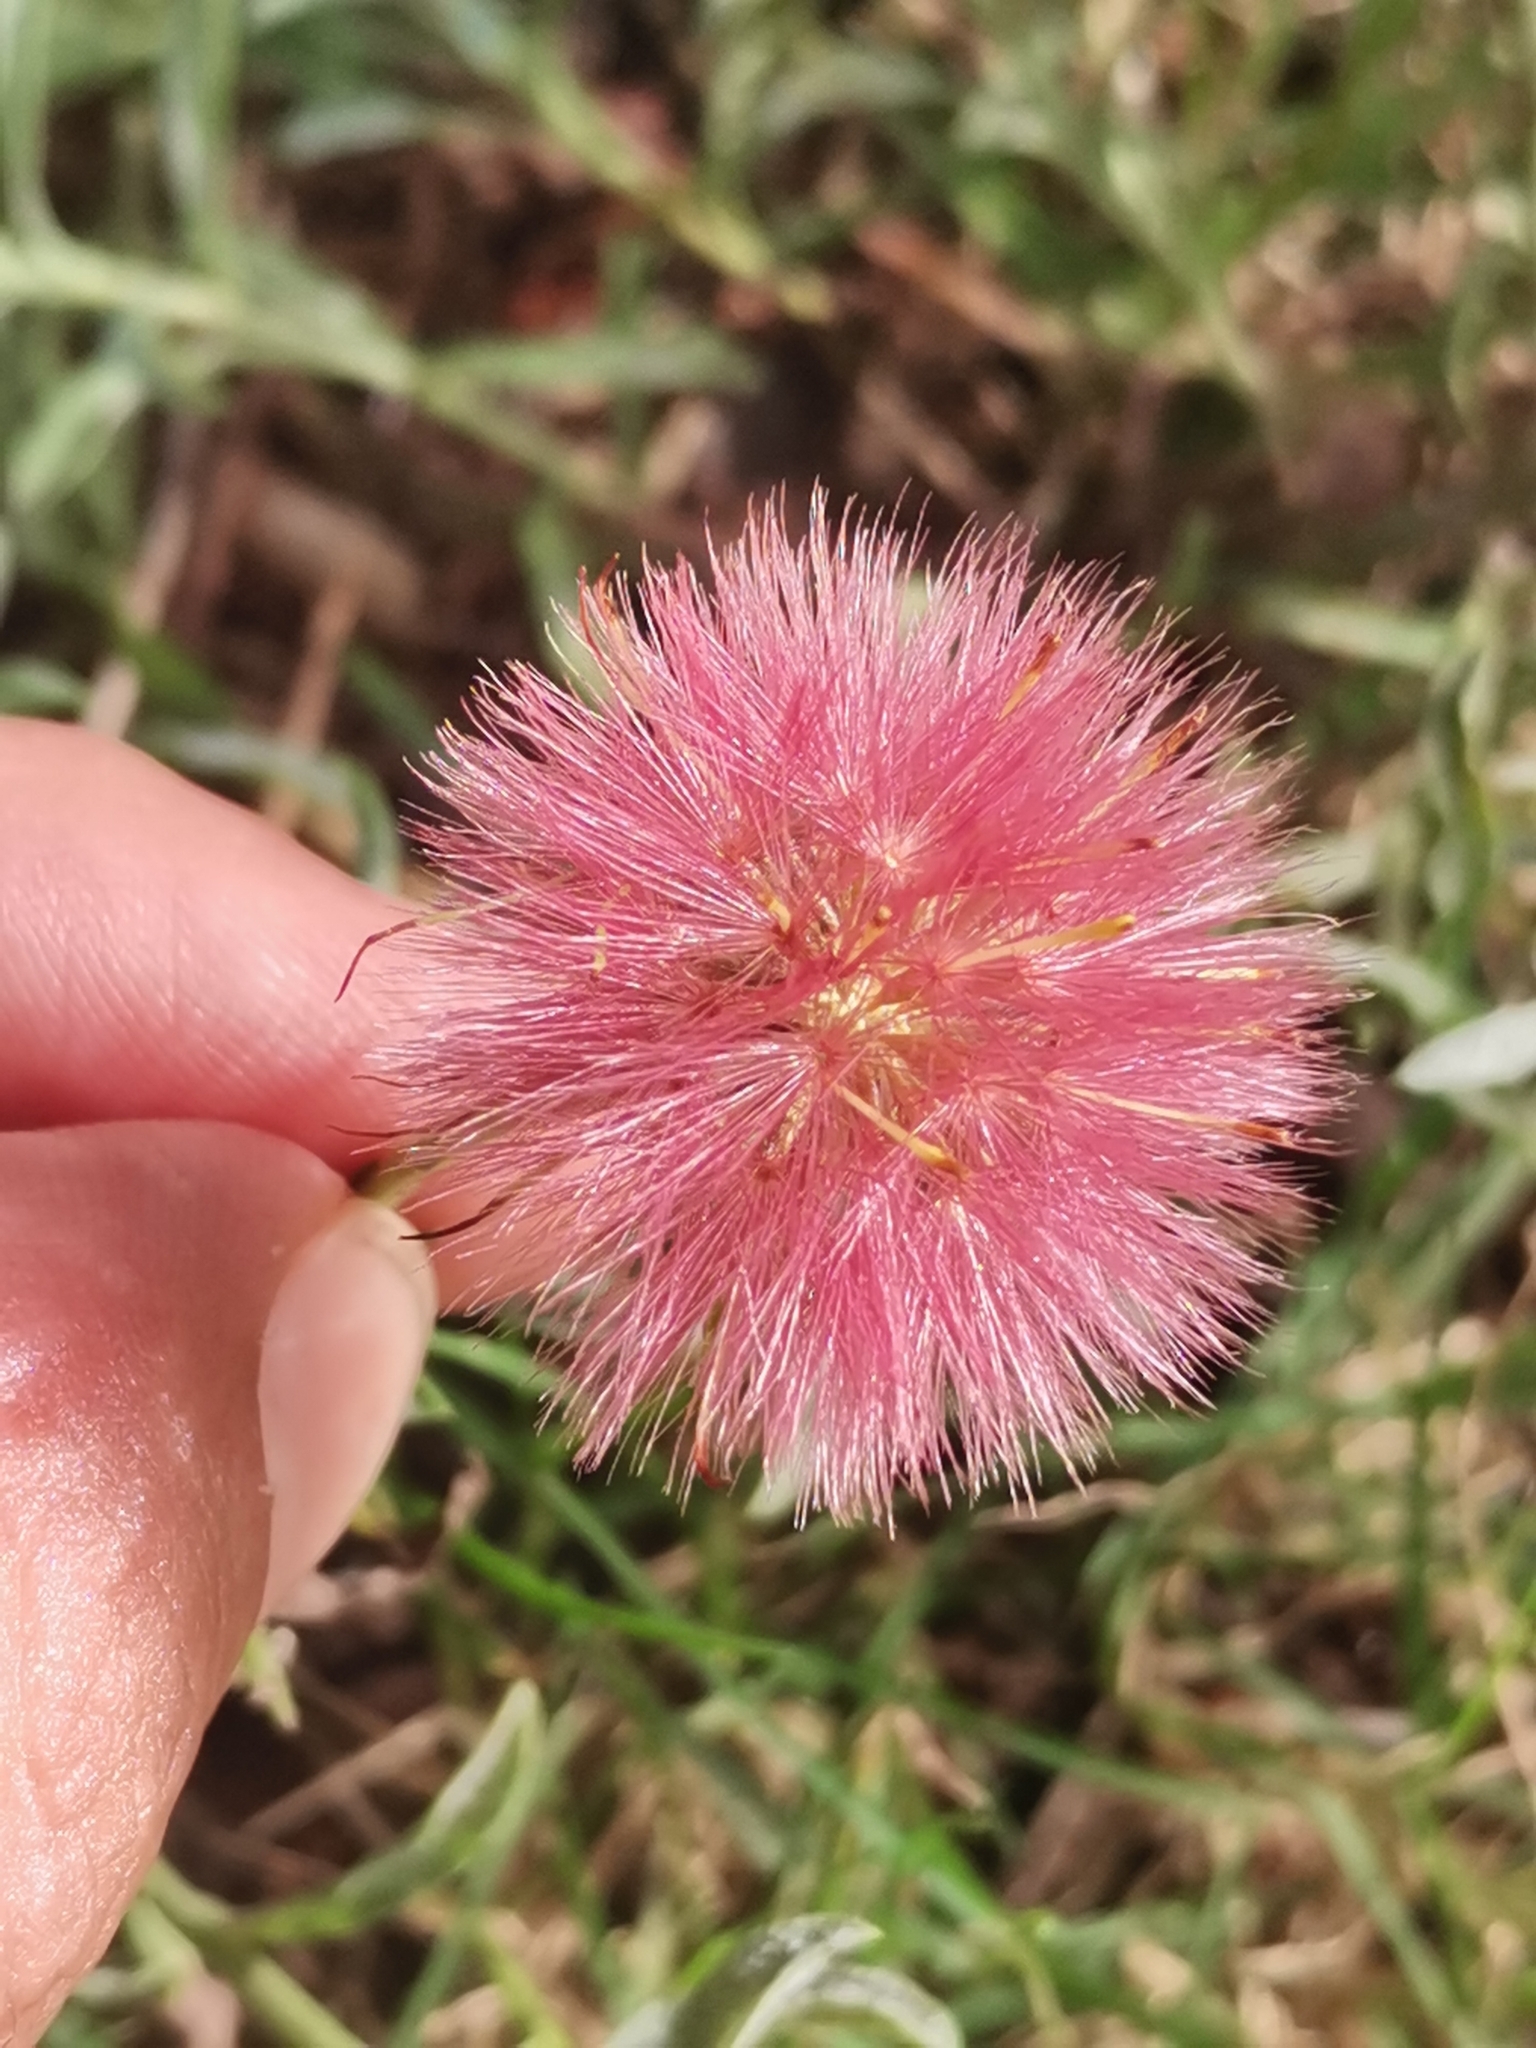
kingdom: Plantae
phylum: Tracheophyta
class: Magnoliopsida
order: Asterales
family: Asteraceae
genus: Noticastrum
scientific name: Noticastrum diffusum
